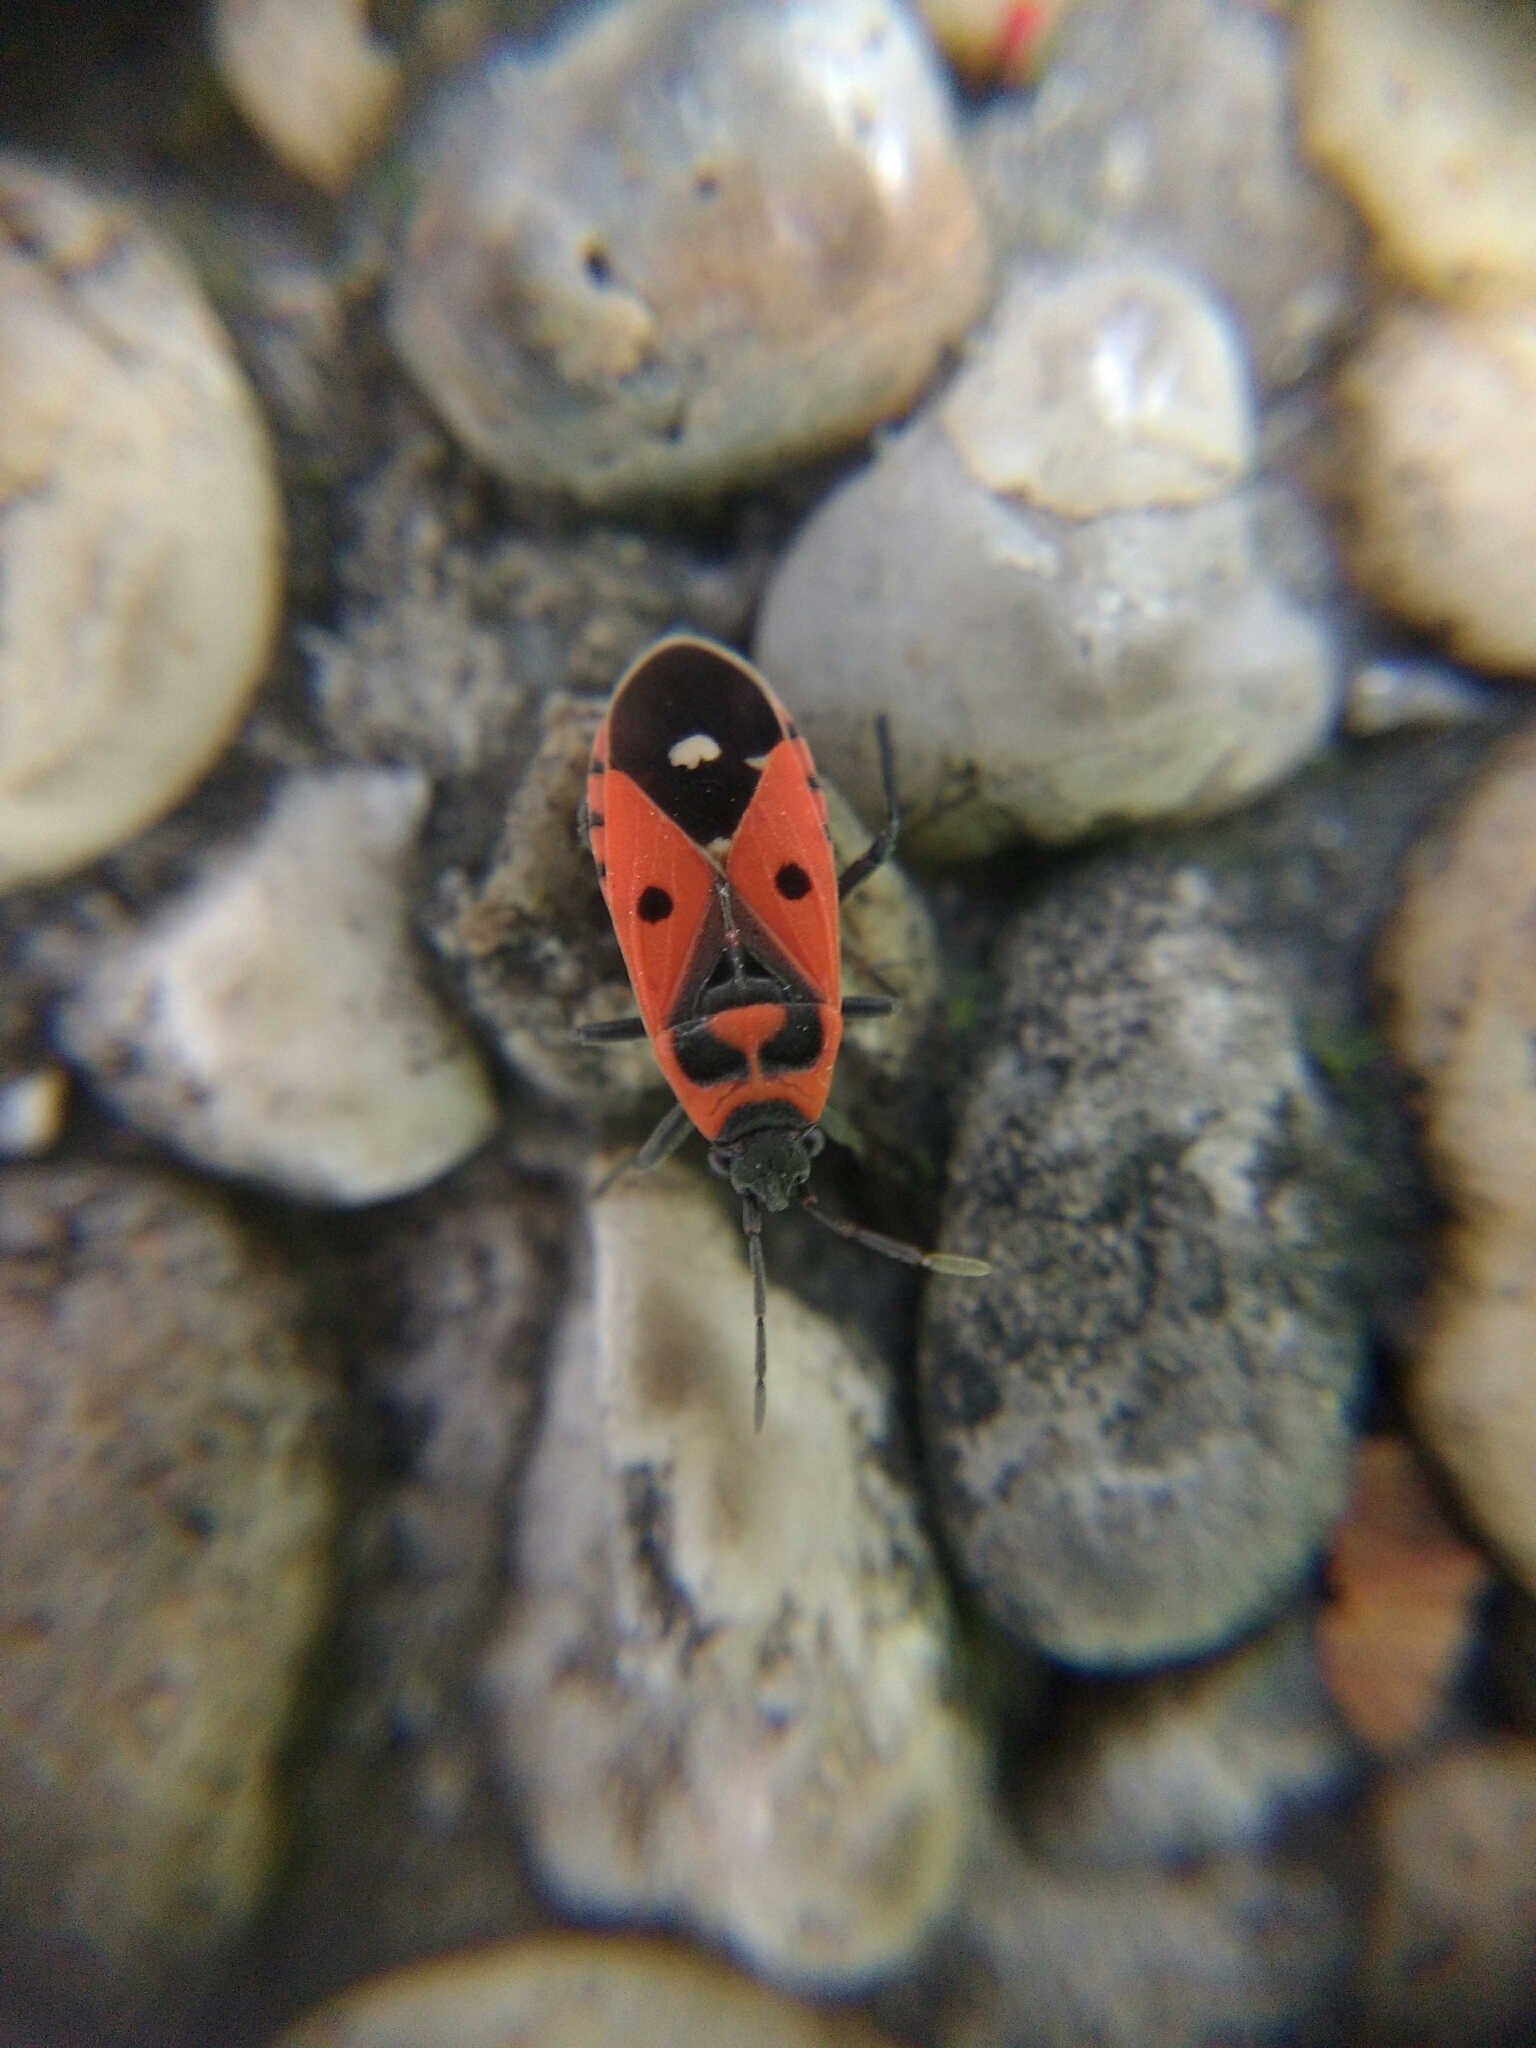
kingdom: Animalia
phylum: Arthropoda
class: Insecta
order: Hemiptera
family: Lygaeidae
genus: Melanocoryphus
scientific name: Melanocoryphus albomaculatus
